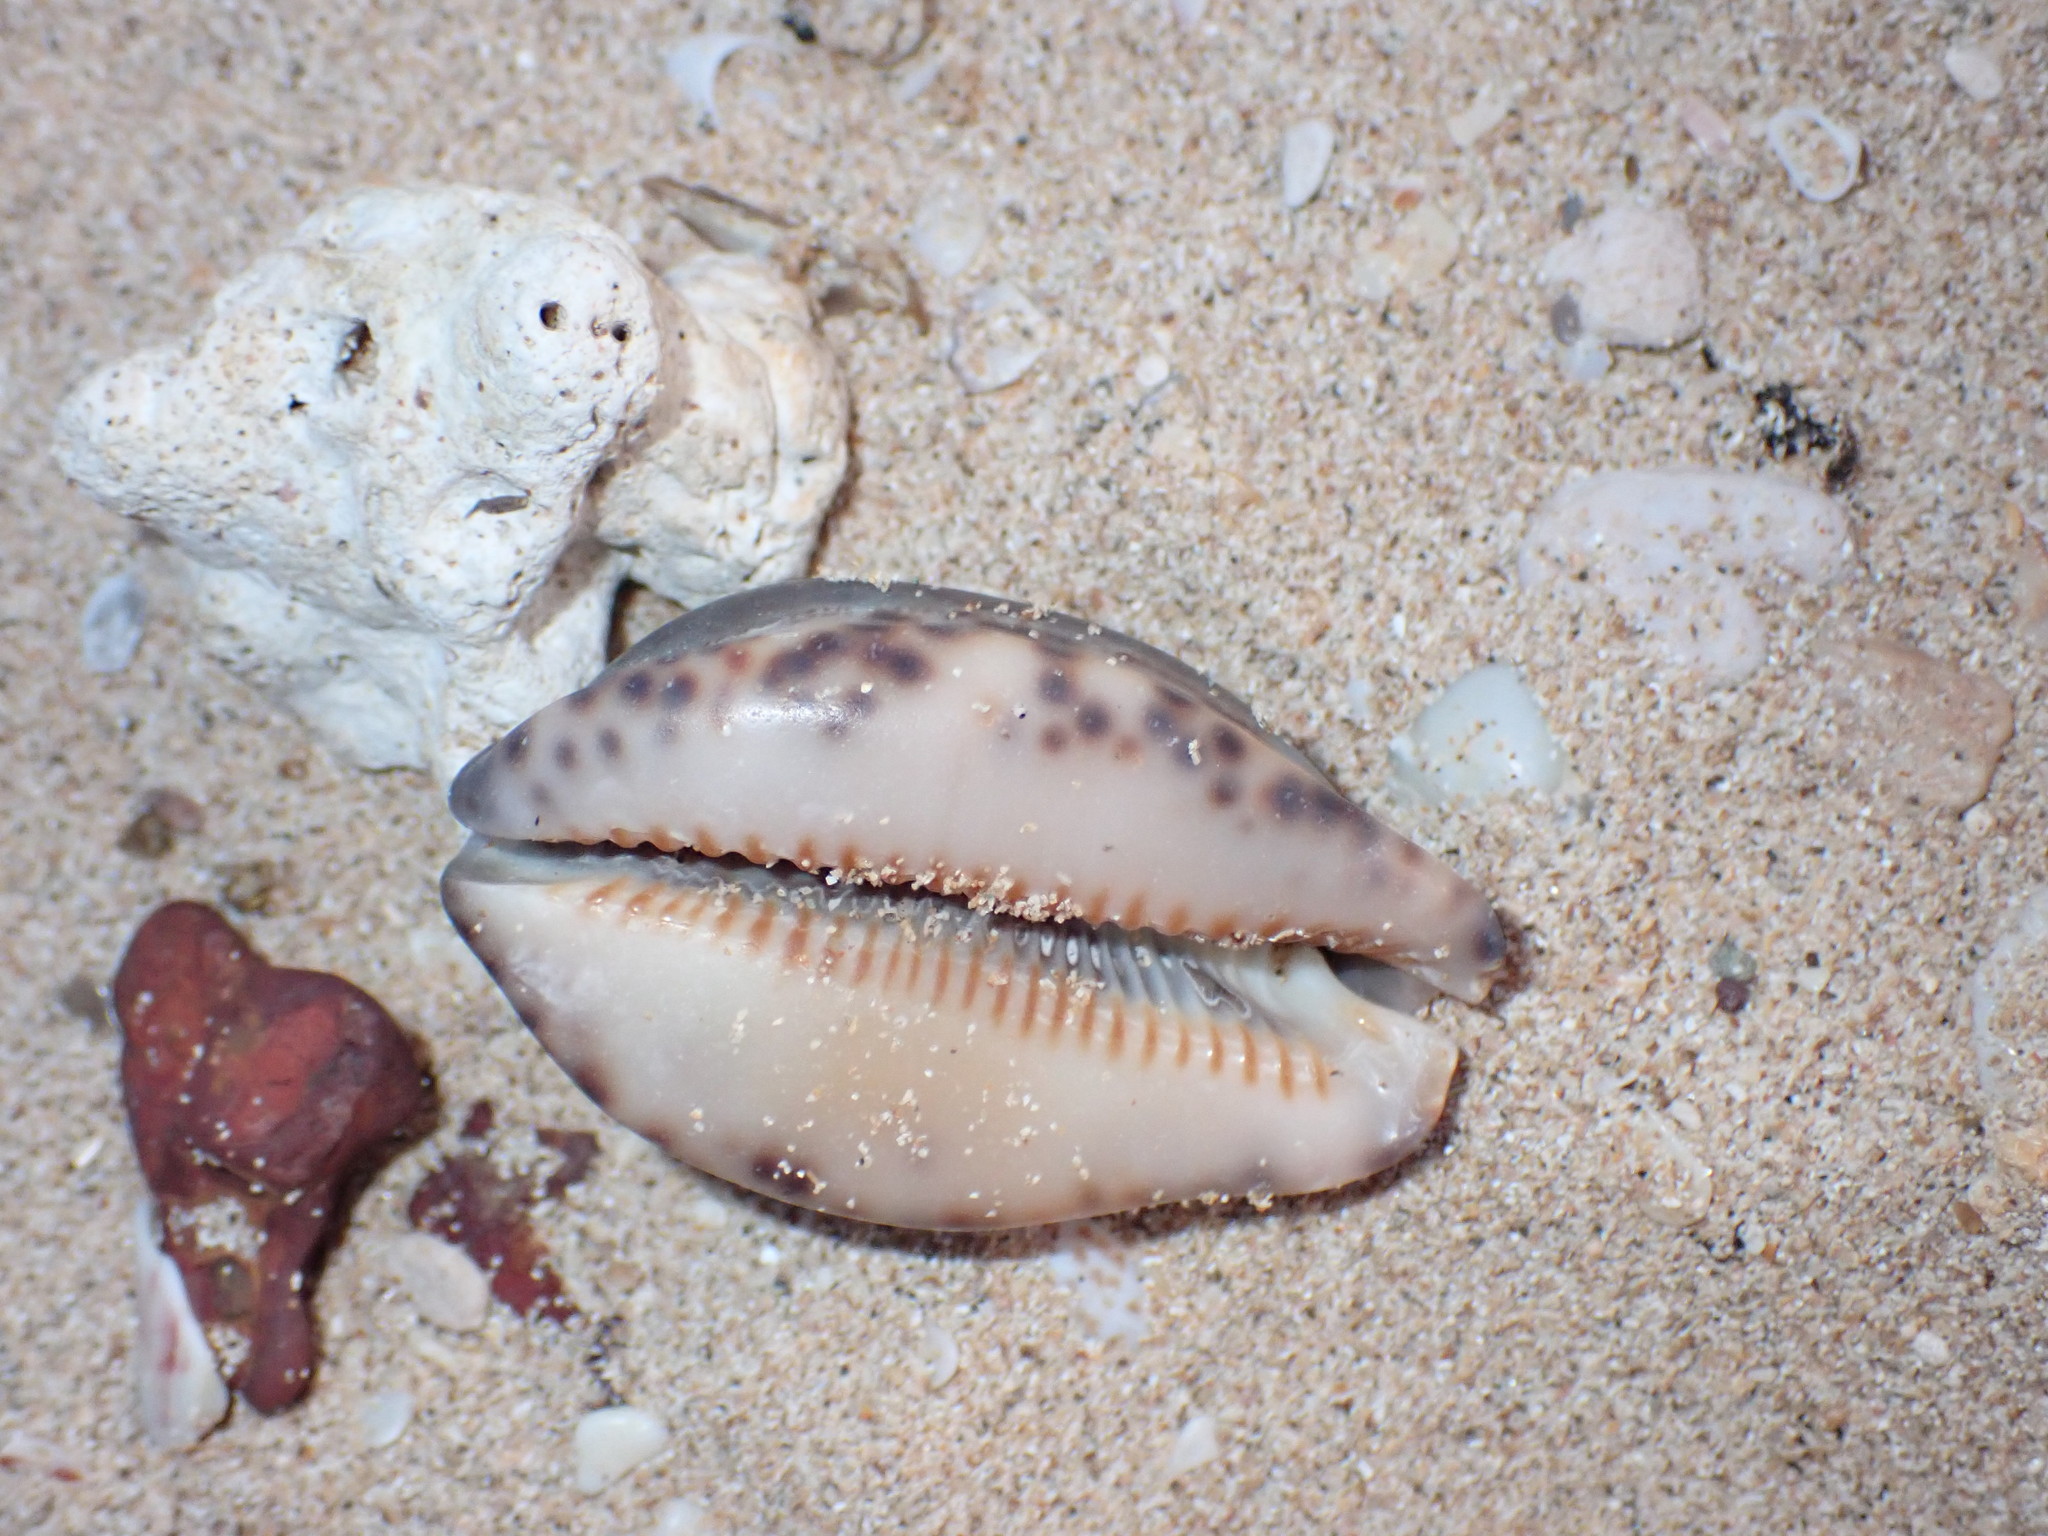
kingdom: Animalia
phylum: Mollusca
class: Gastropoda
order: Littorinimorpha
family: Cypraeidae
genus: Mauritia
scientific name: Mauritia arabica
